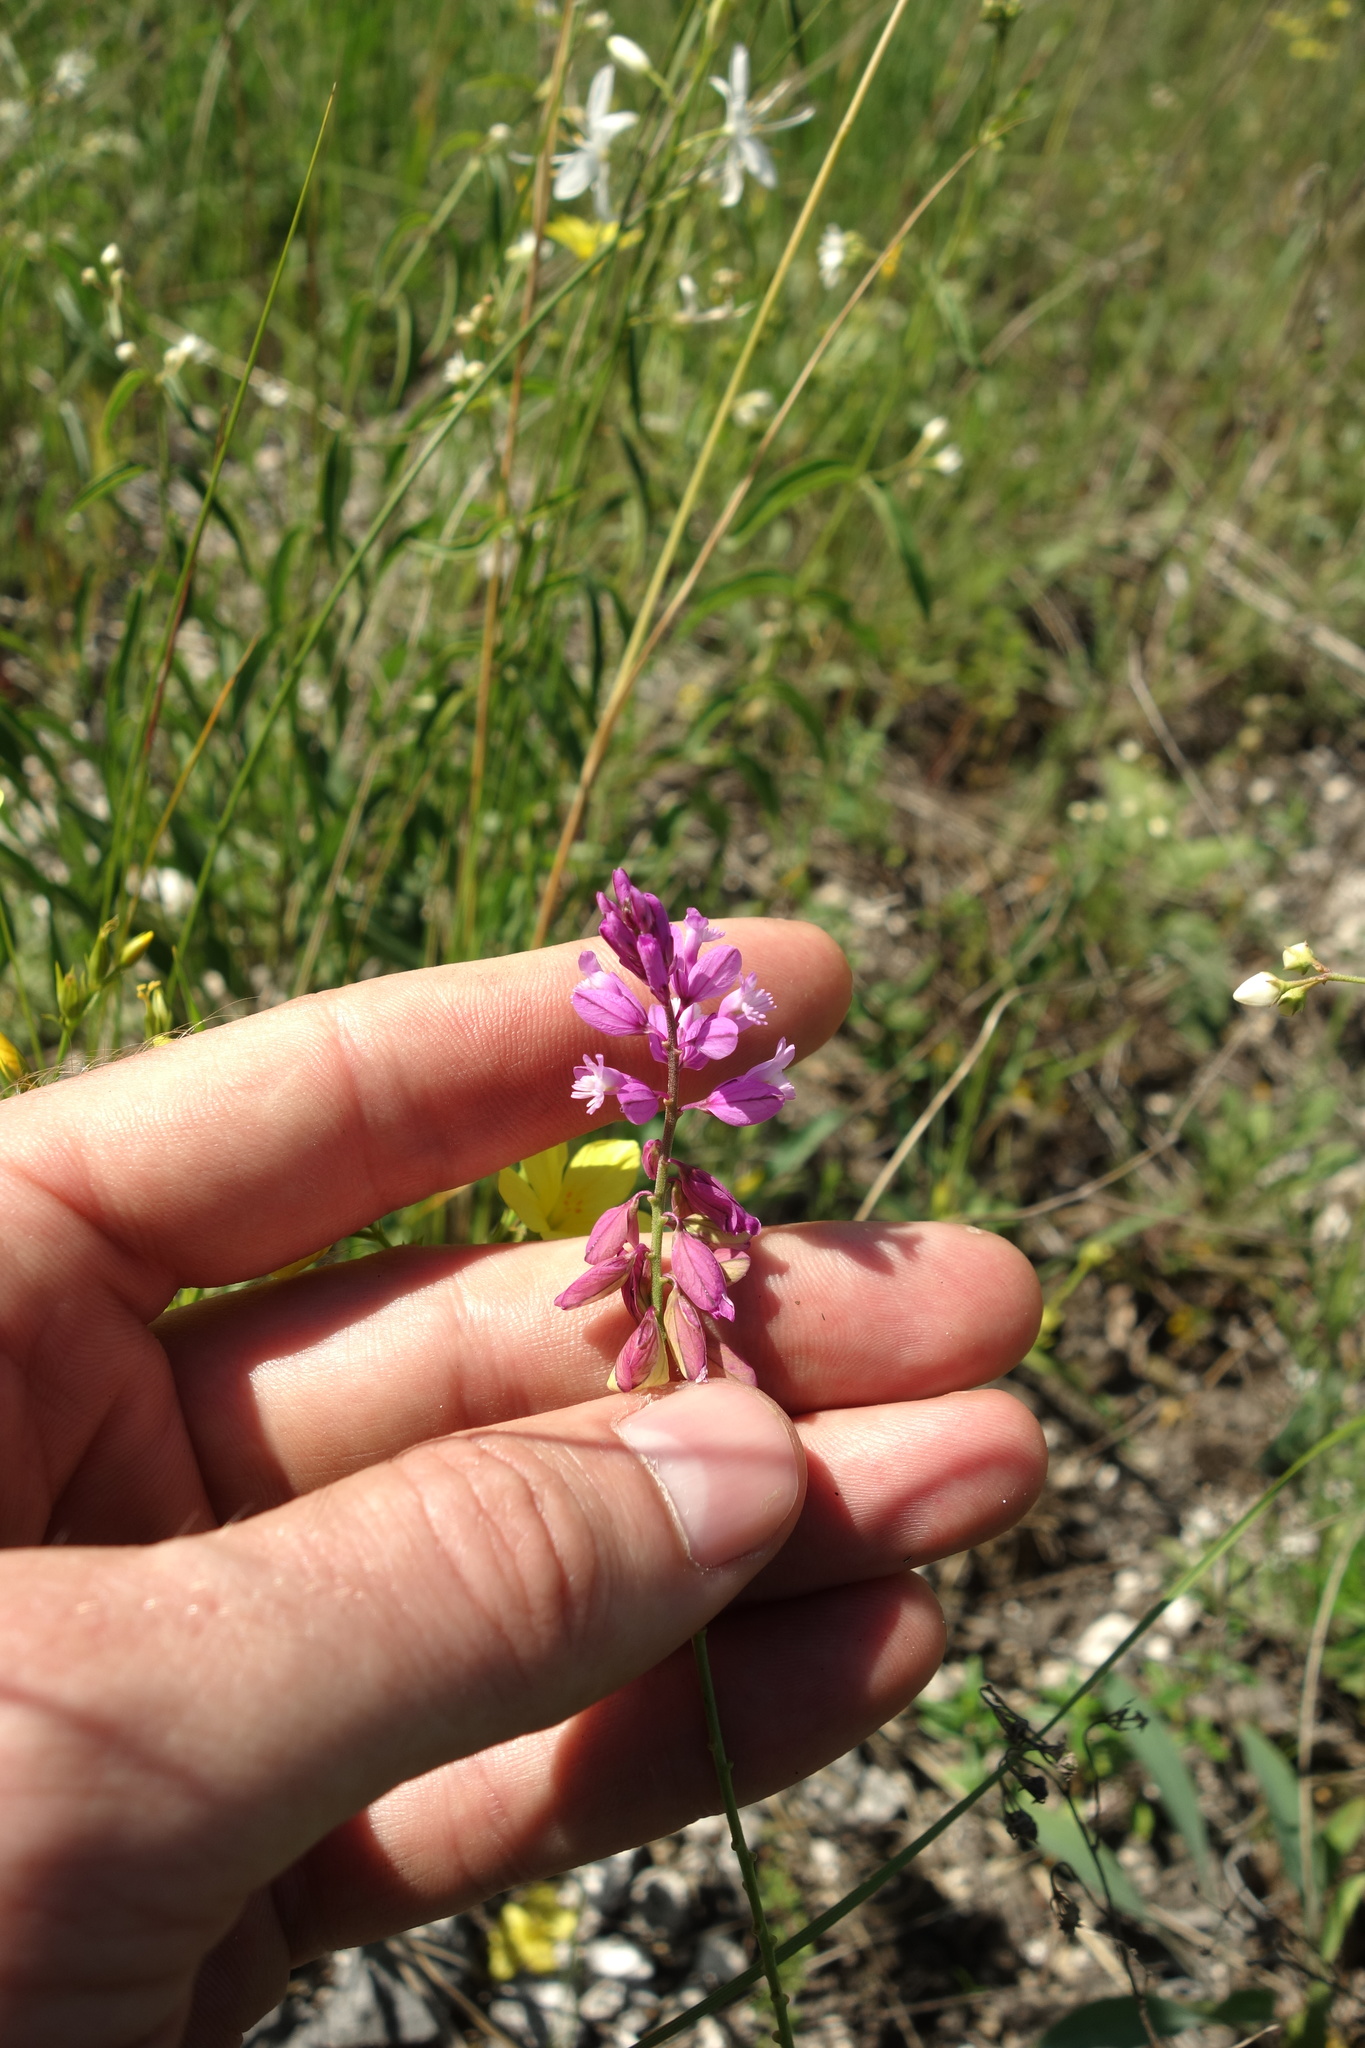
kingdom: Plantae
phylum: Tracheophyta
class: Magnoliopsida
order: Fabales
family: Polygalaceae
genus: Polygala
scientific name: Polygala nicaeensis
